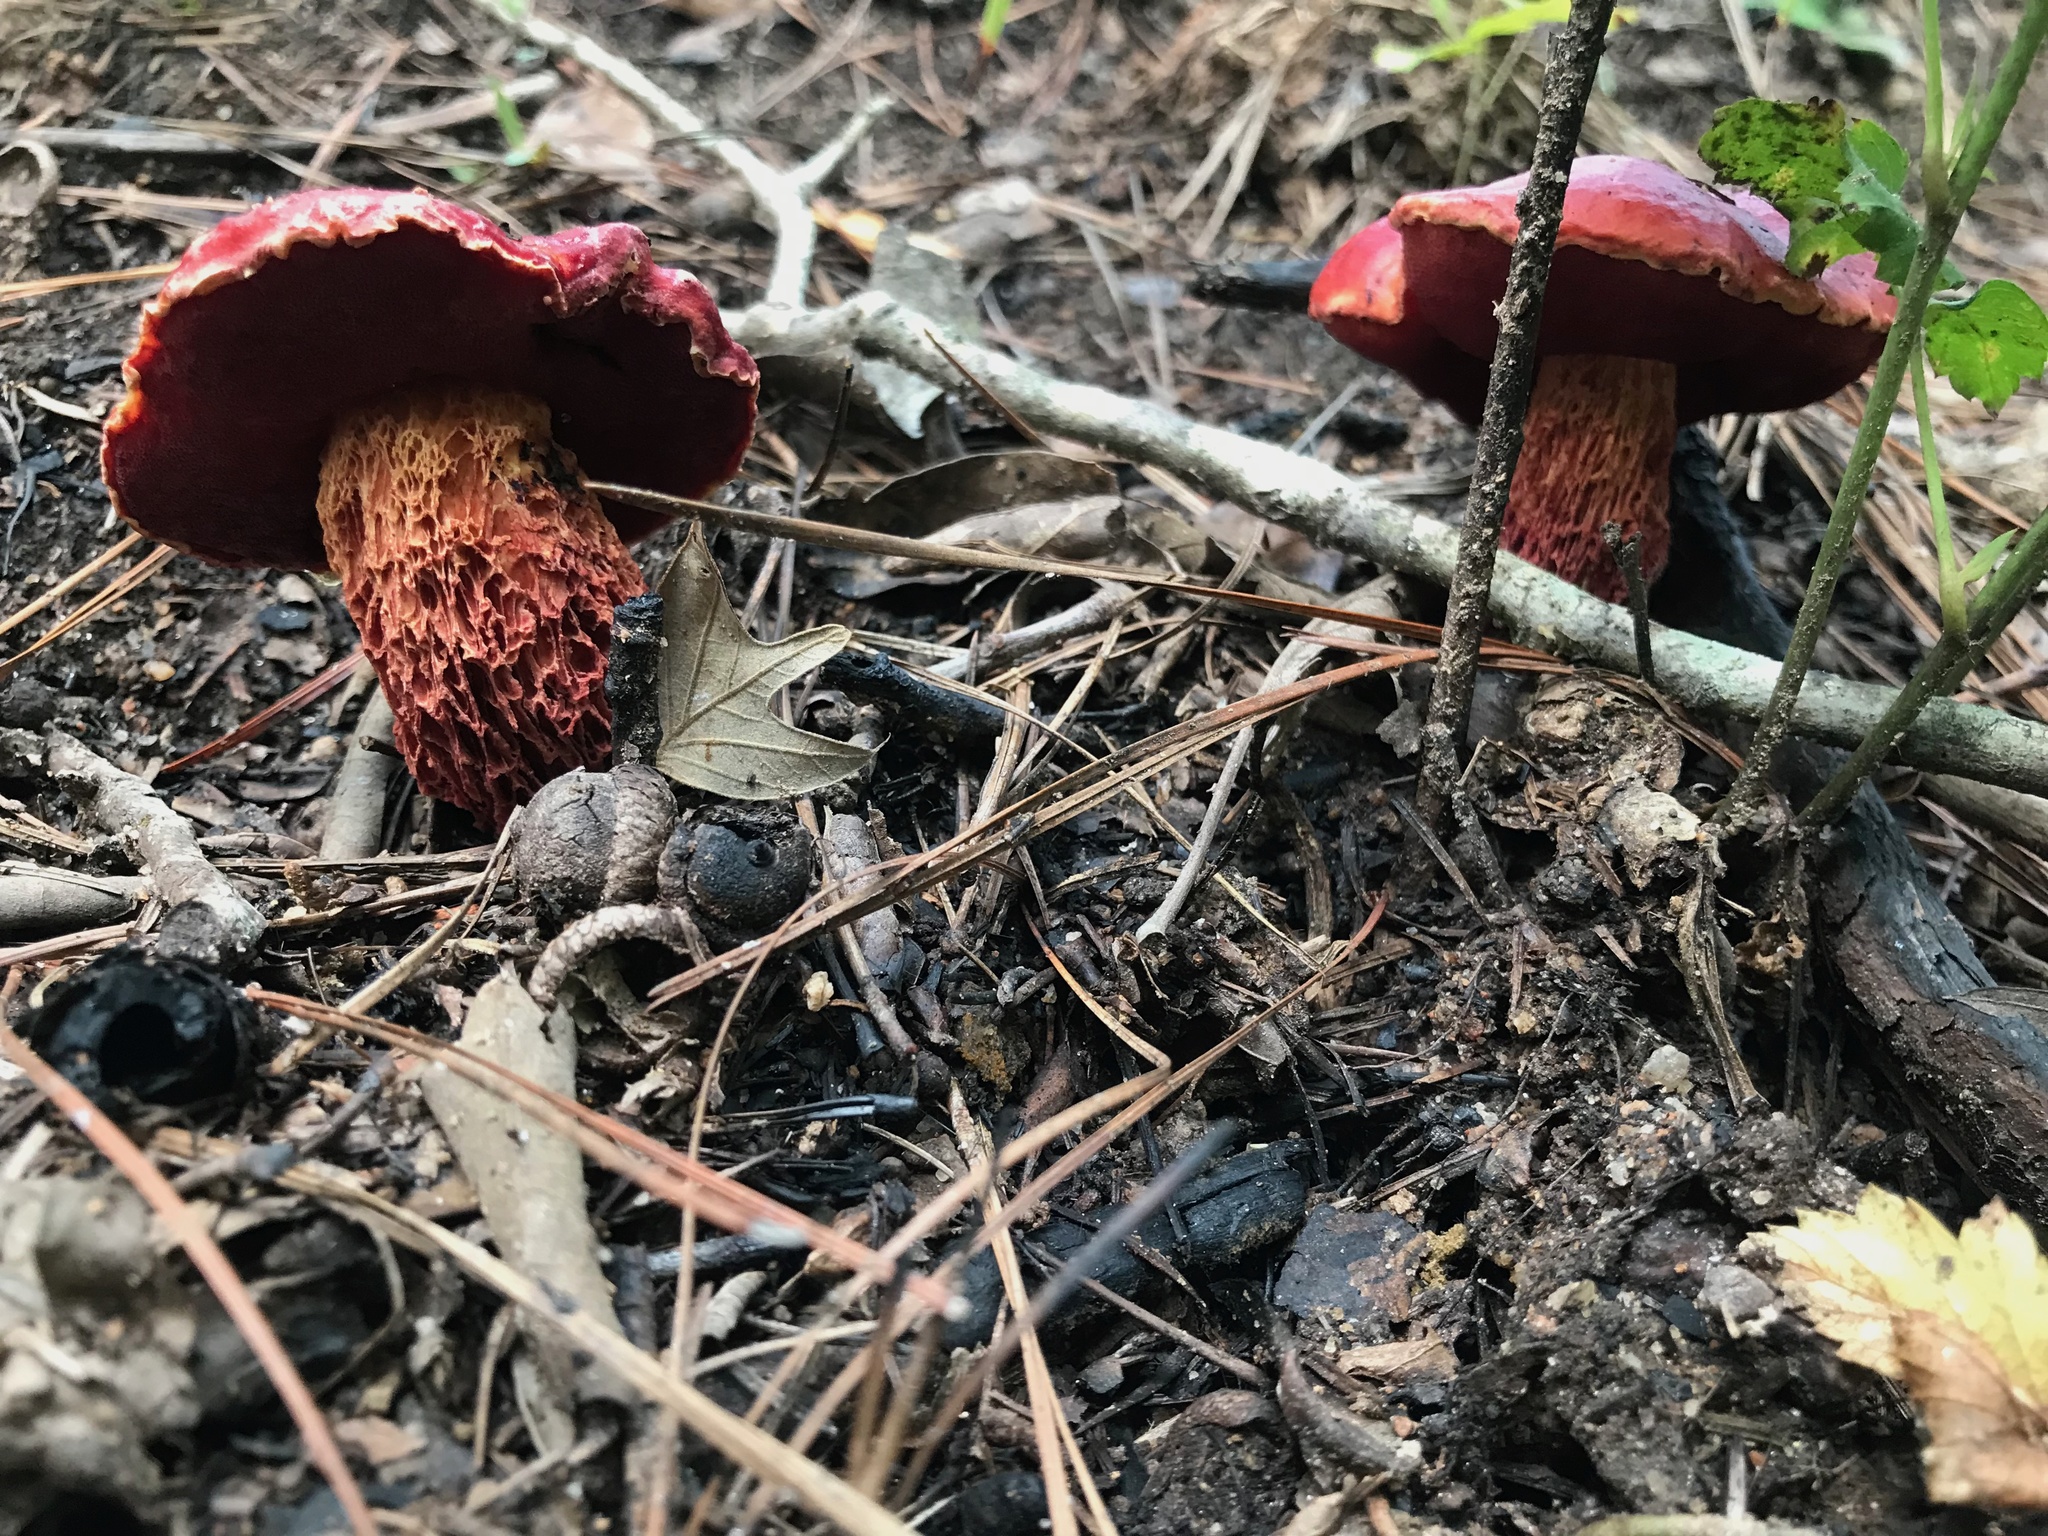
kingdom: Fungi
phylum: Basidiomycota
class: Agaricomycetes
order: Boletales
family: Boletaceae
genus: Butyriboletus
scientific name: Butyriboletus frostii
